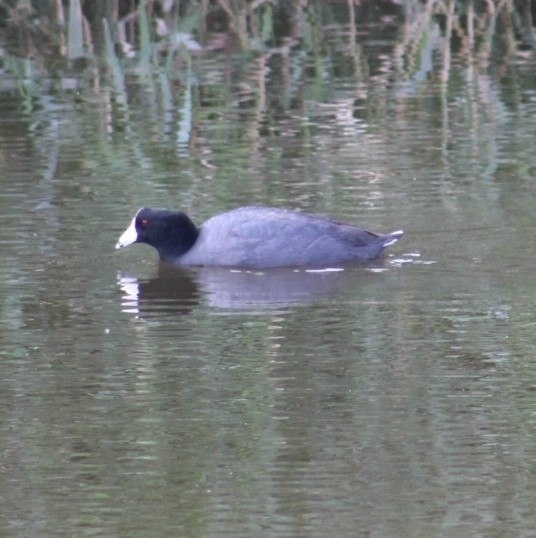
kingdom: Animalia
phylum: Chordata
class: Aves
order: Gruiformes
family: Rallidae
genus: Fulica
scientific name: Fulica americana
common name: American coot
